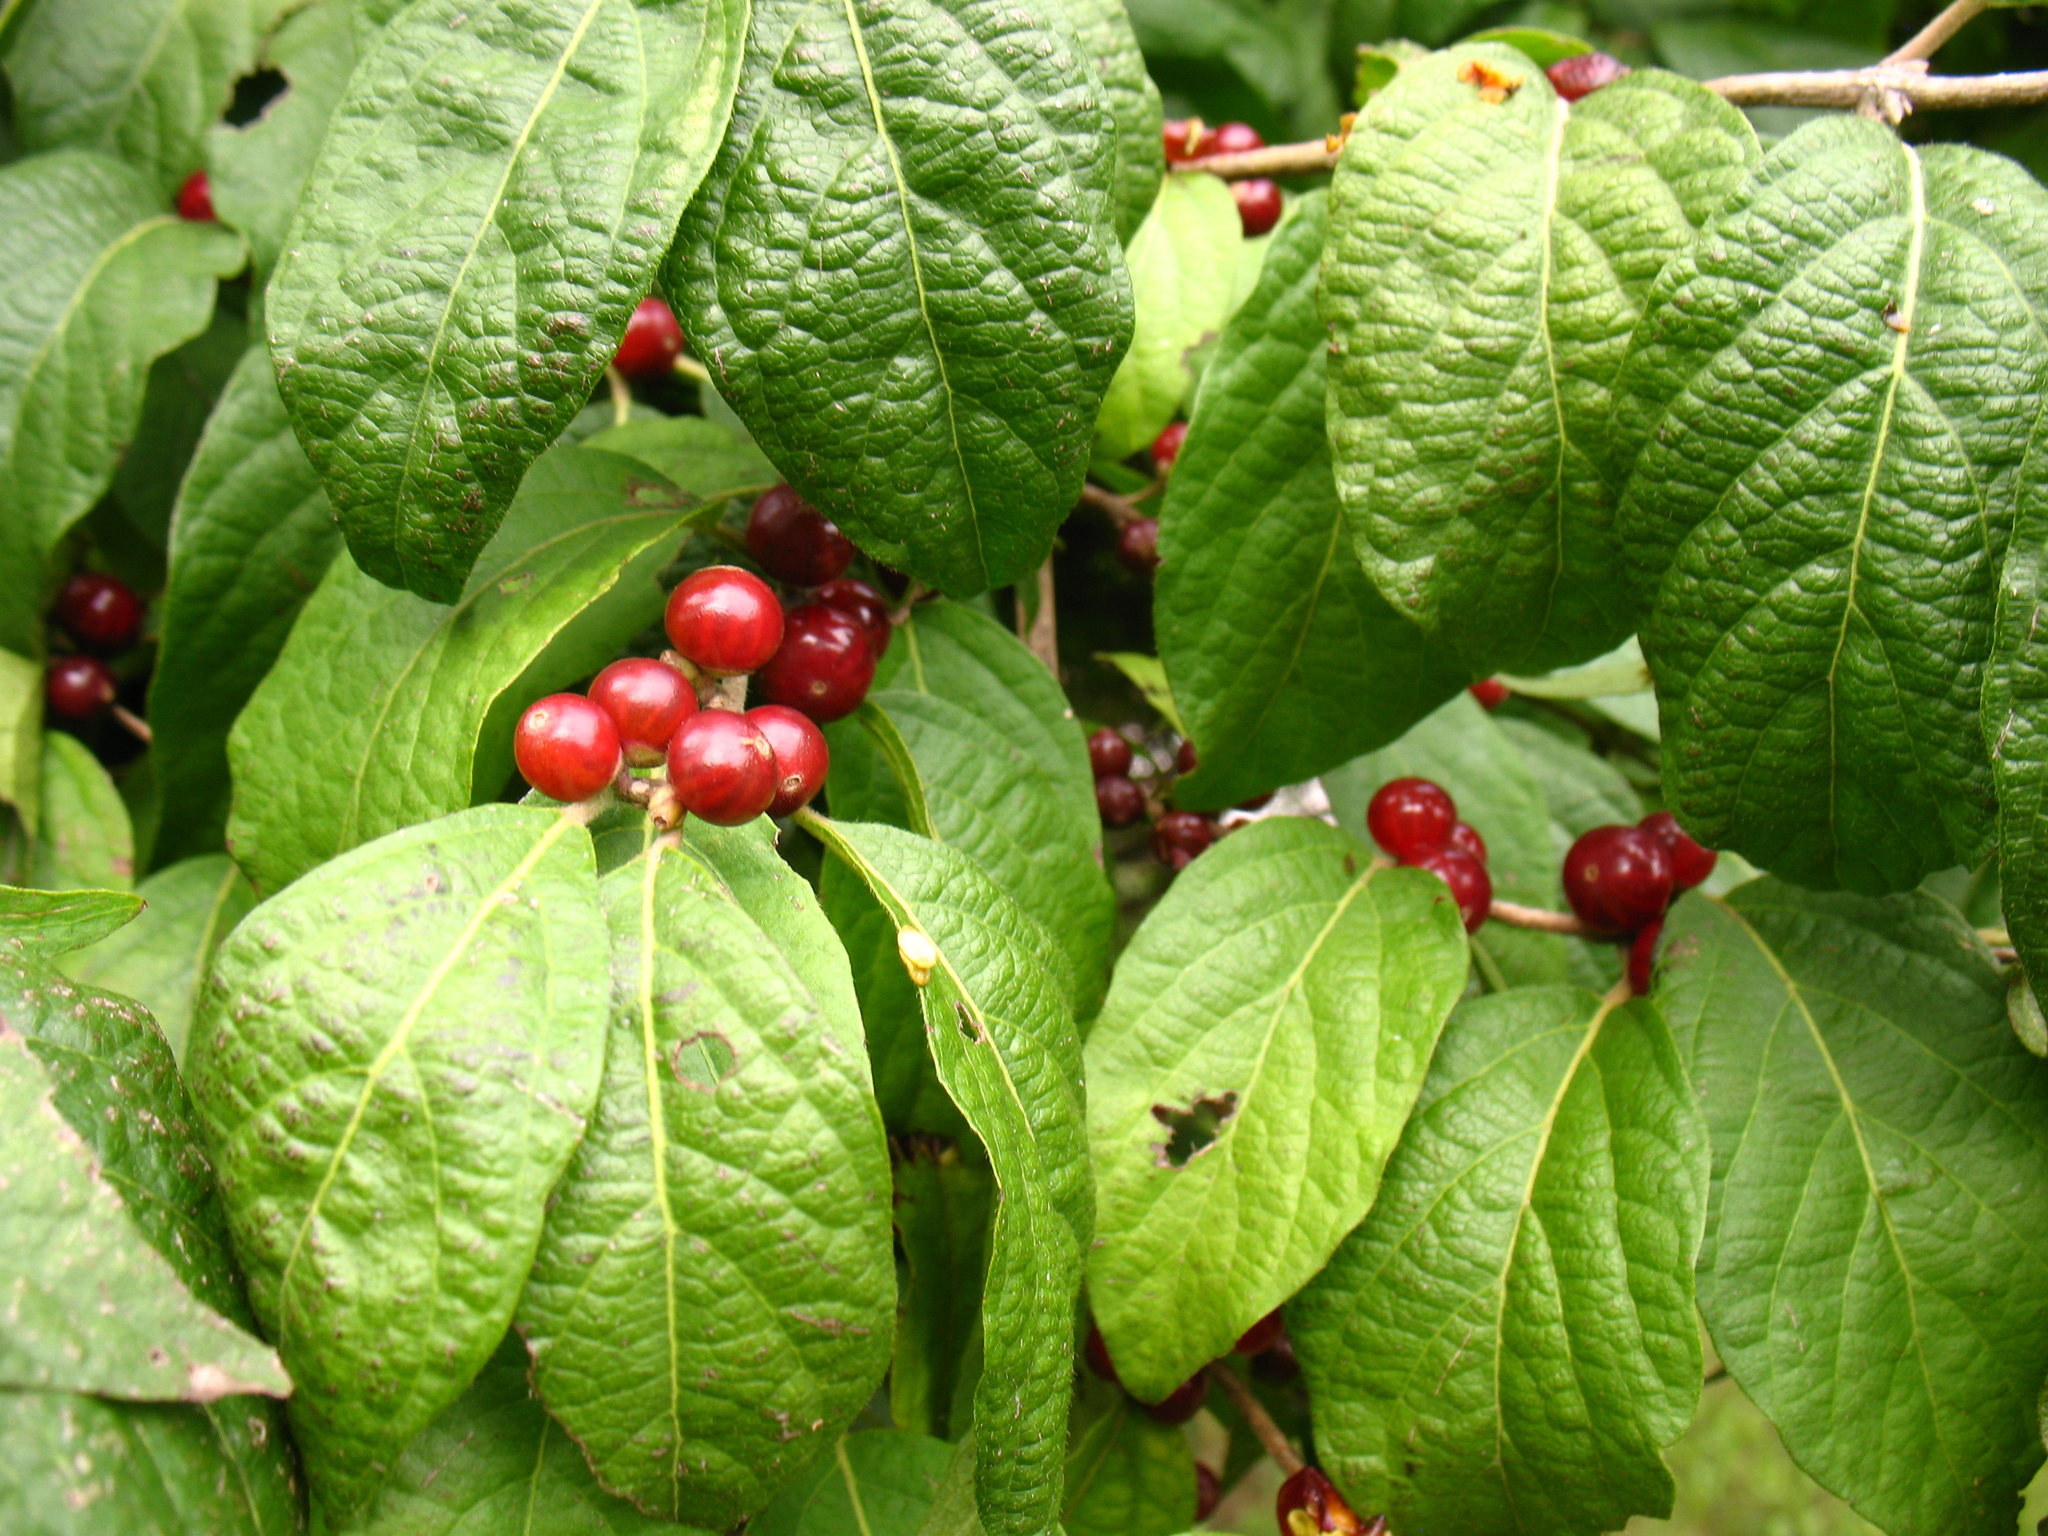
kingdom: Plantae
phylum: Tracheophyta
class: Magnoliopsida
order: Dipsacales
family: Caprifoliaceae
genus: Lonicera
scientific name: Lonicera maackii
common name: Amur honeysuckle
